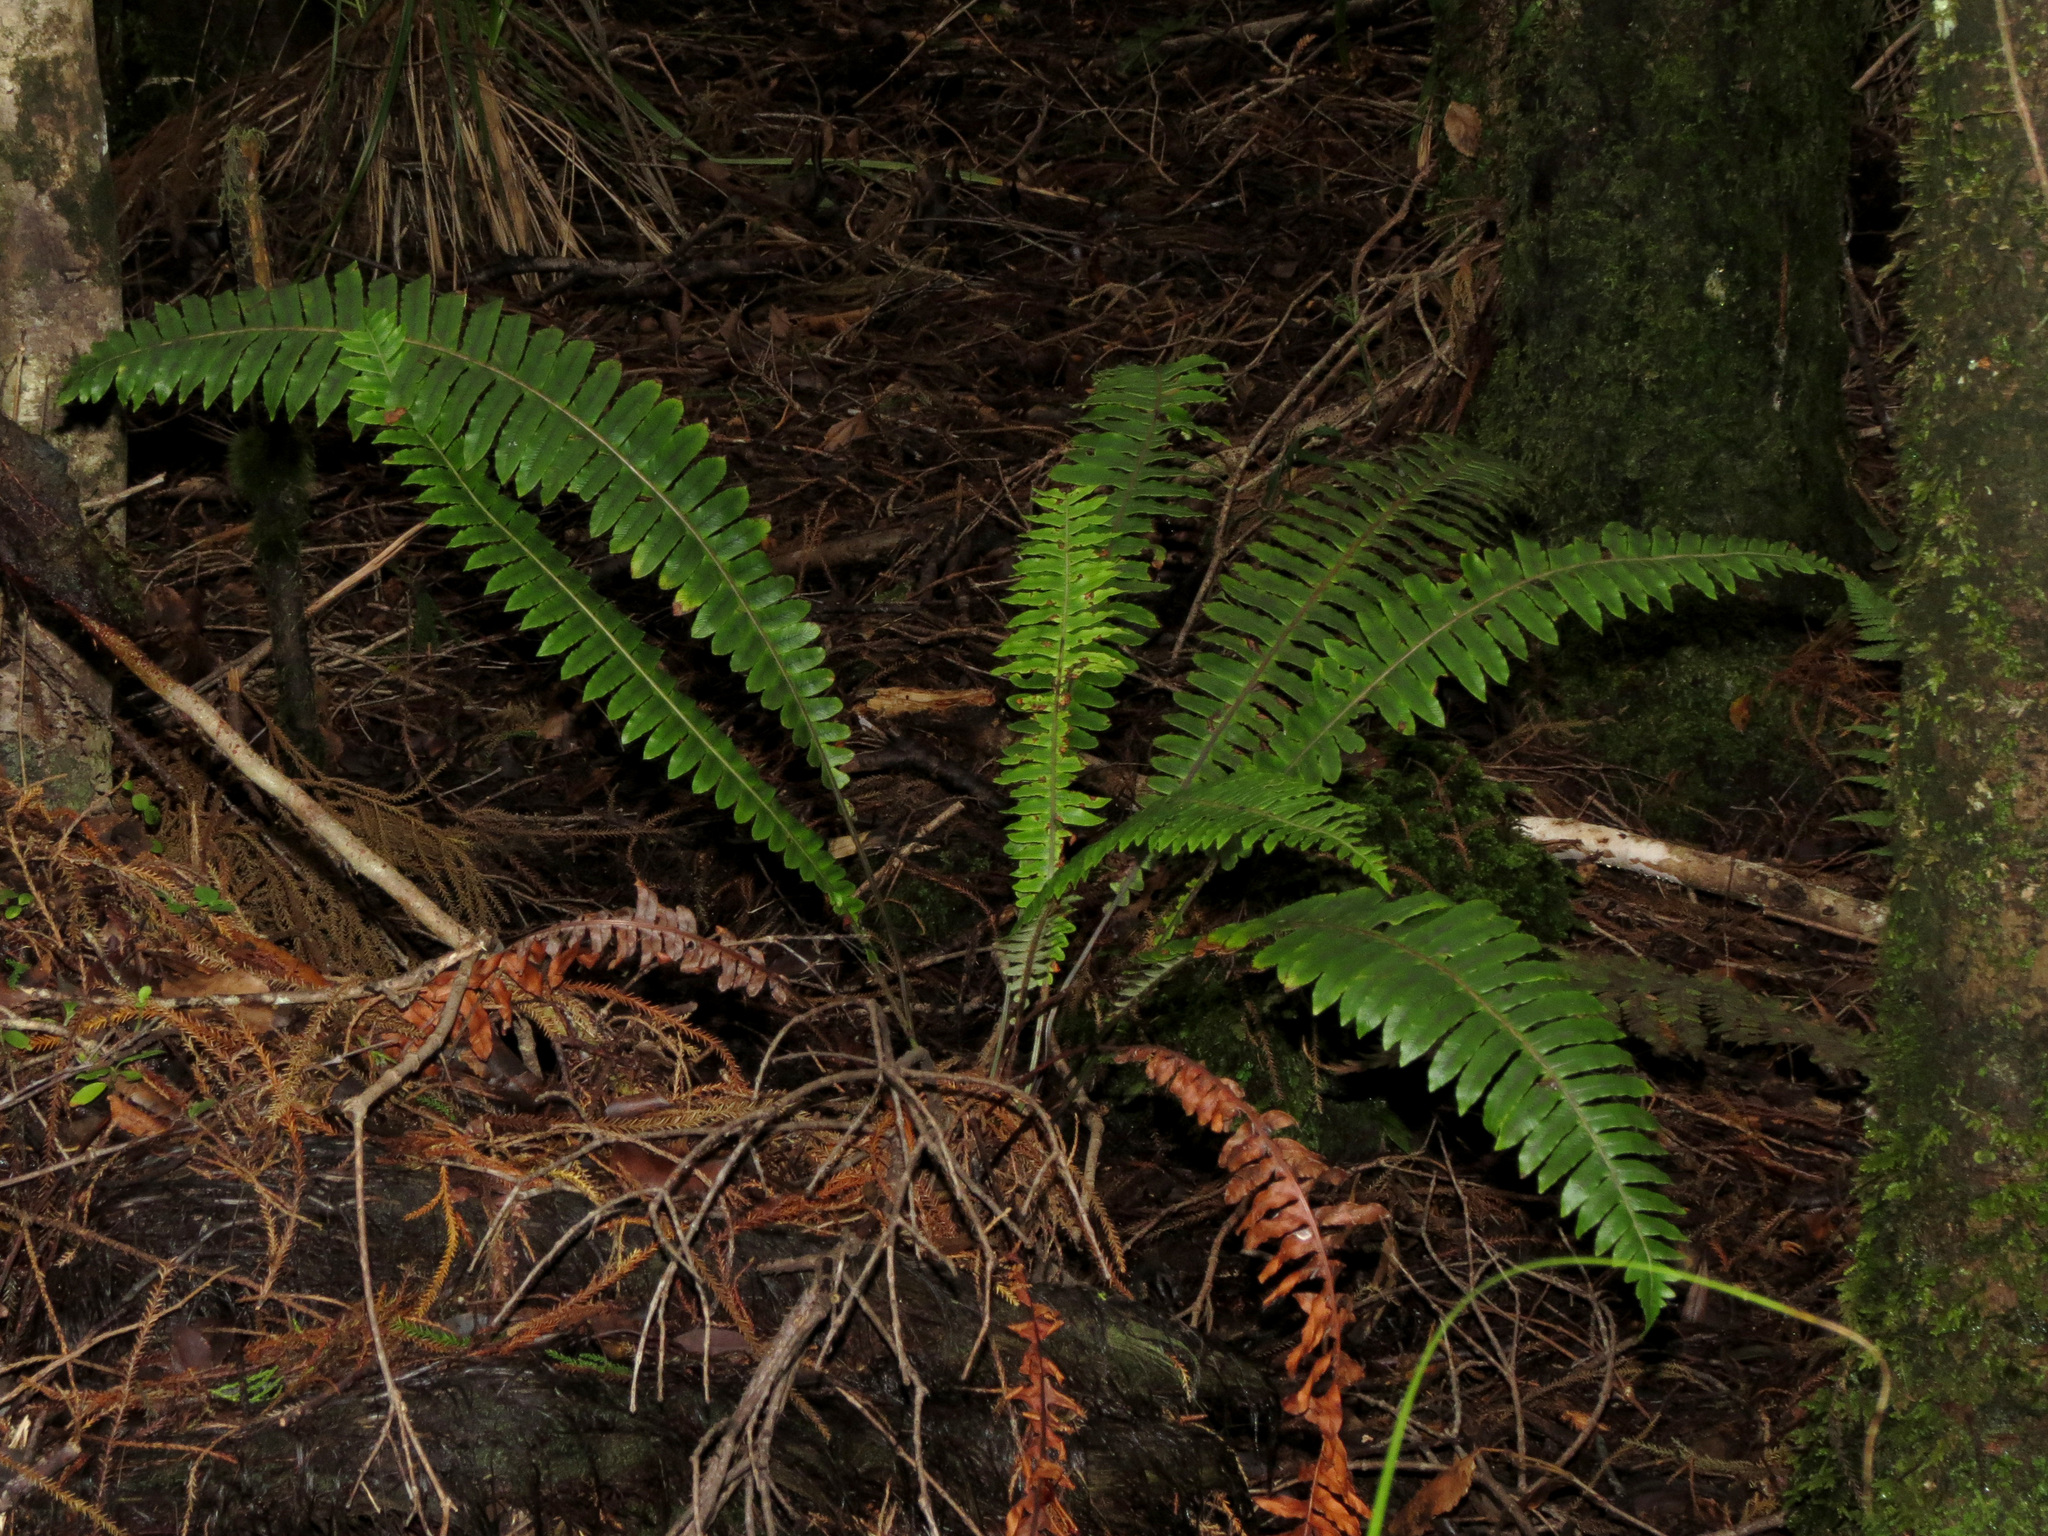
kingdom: Plantae
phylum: Tracheophyta
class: Polypodiopsida
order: Polypodiales
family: Blechnaceae
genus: Lomaria
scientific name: Lomaria discolor
